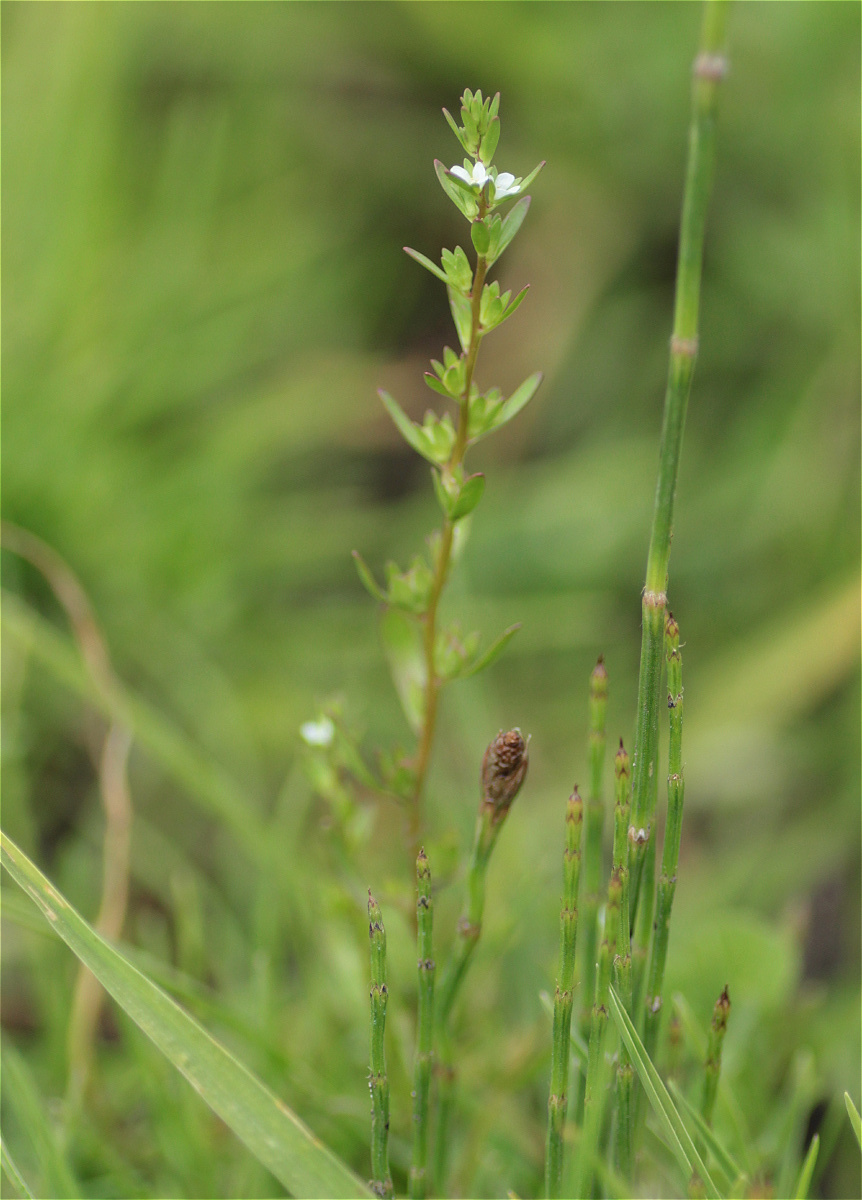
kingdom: Plantae
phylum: Tracheophyta
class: Magnoliopsida
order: Lamiales
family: Plantaginaceae
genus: Veronica
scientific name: Veronica peregrina
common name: Neckweed
